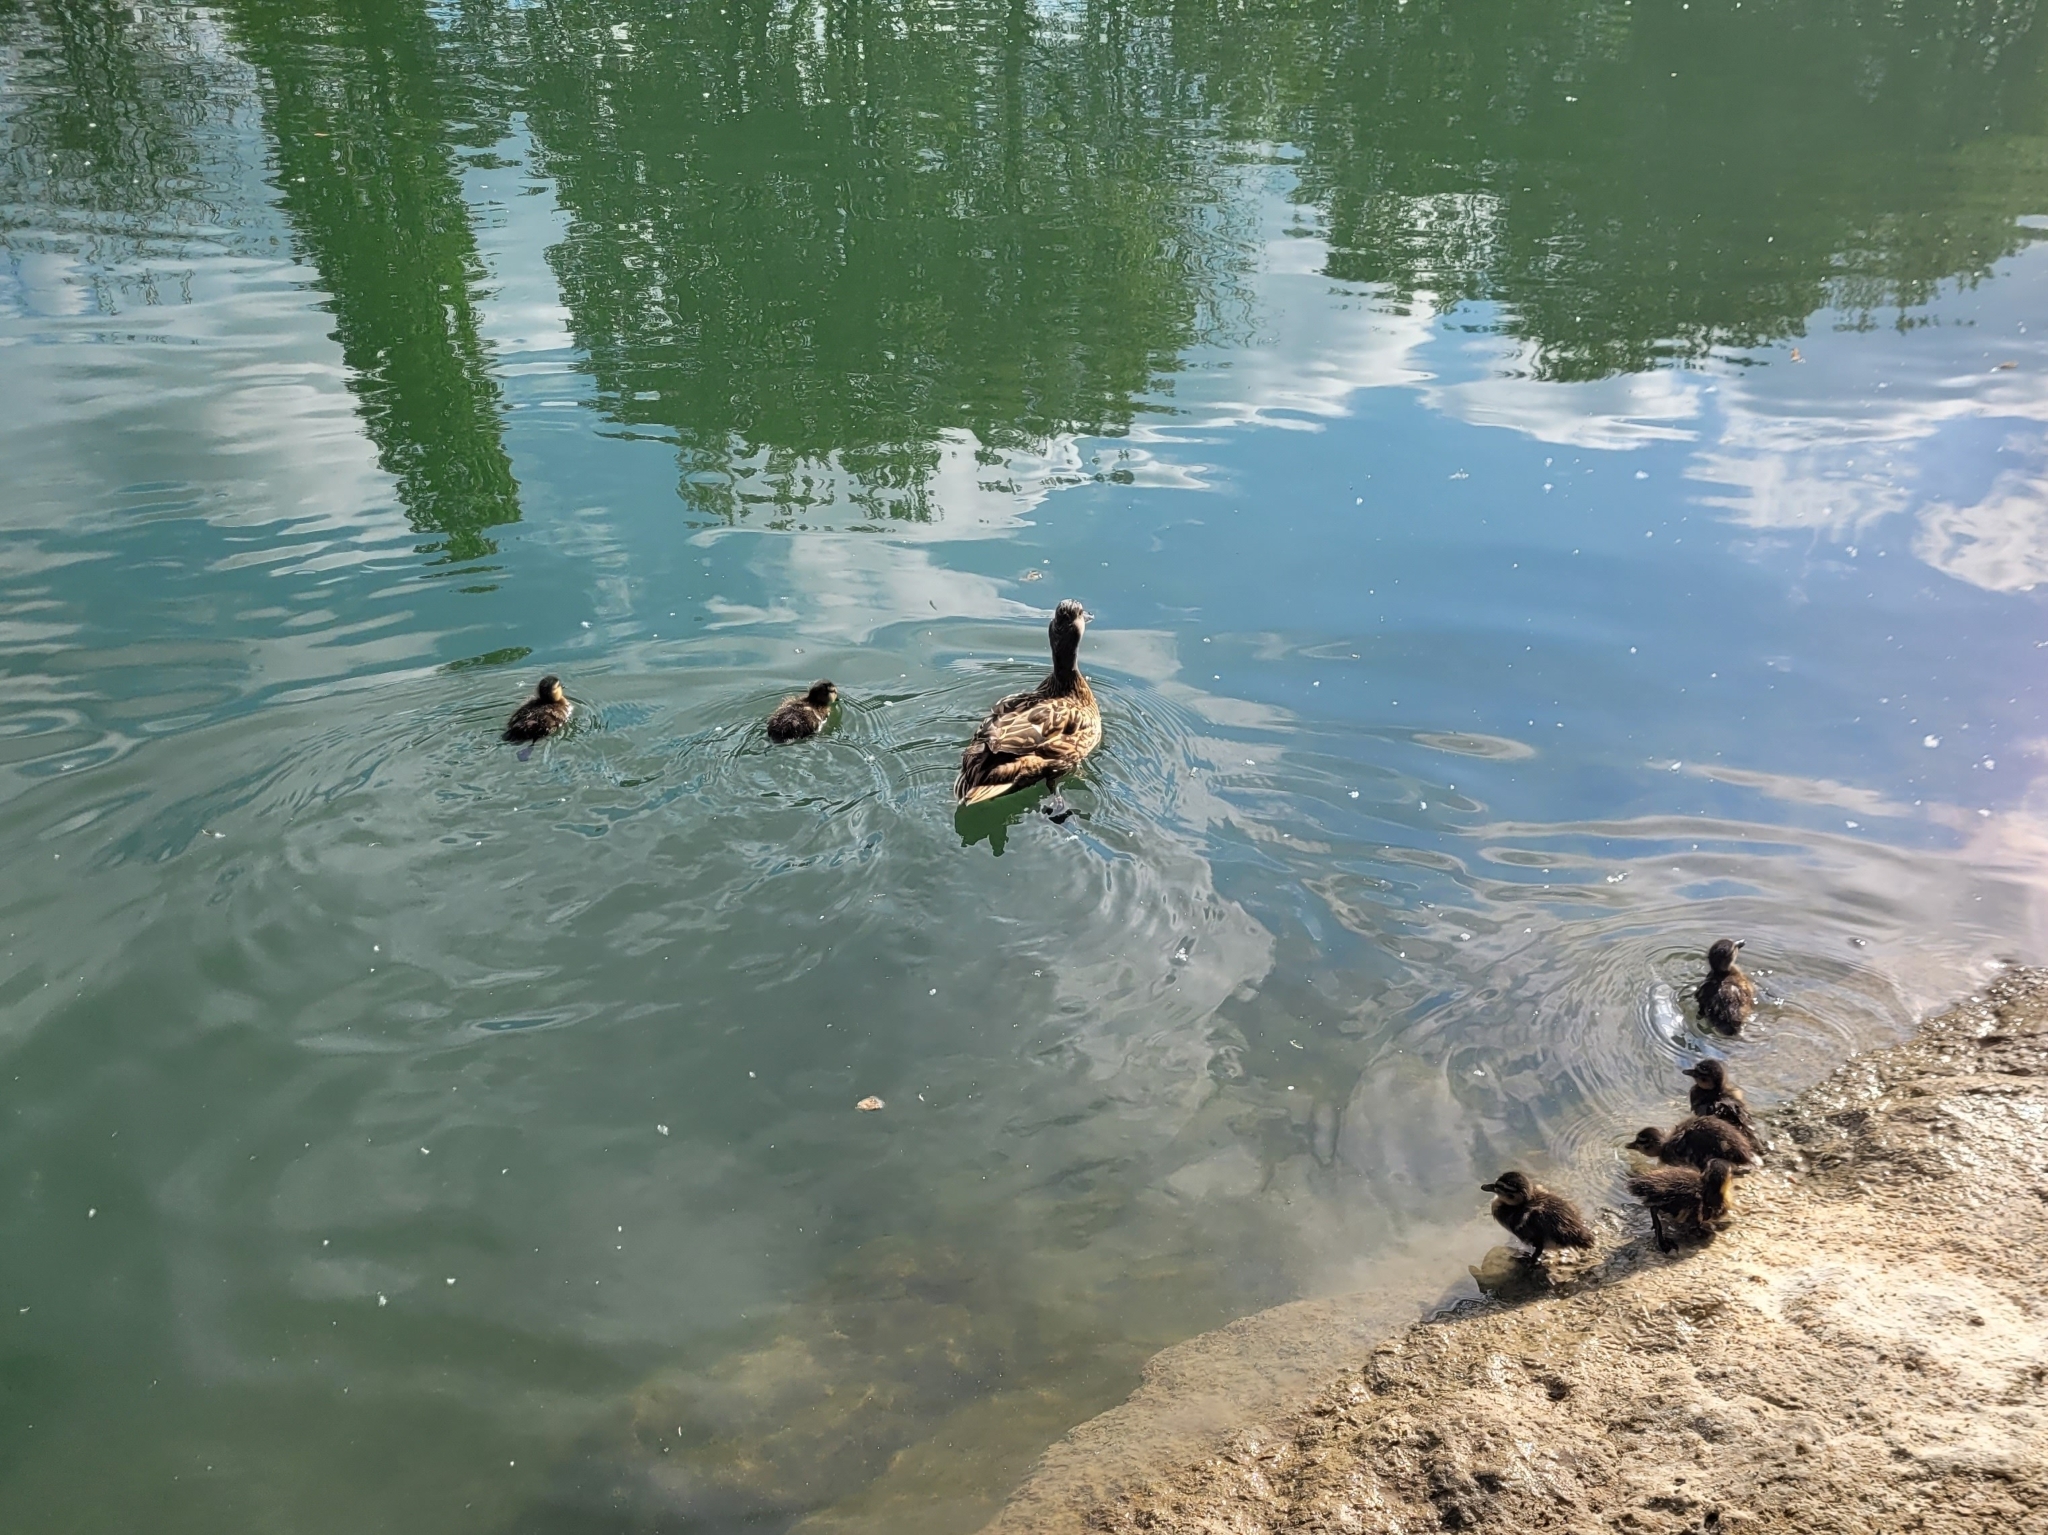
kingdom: Animalia
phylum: Chordata
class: Aves
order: Anseriformes
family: Anatidae
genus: Anas
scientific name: Anas platyrhynchos
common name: Mallard
